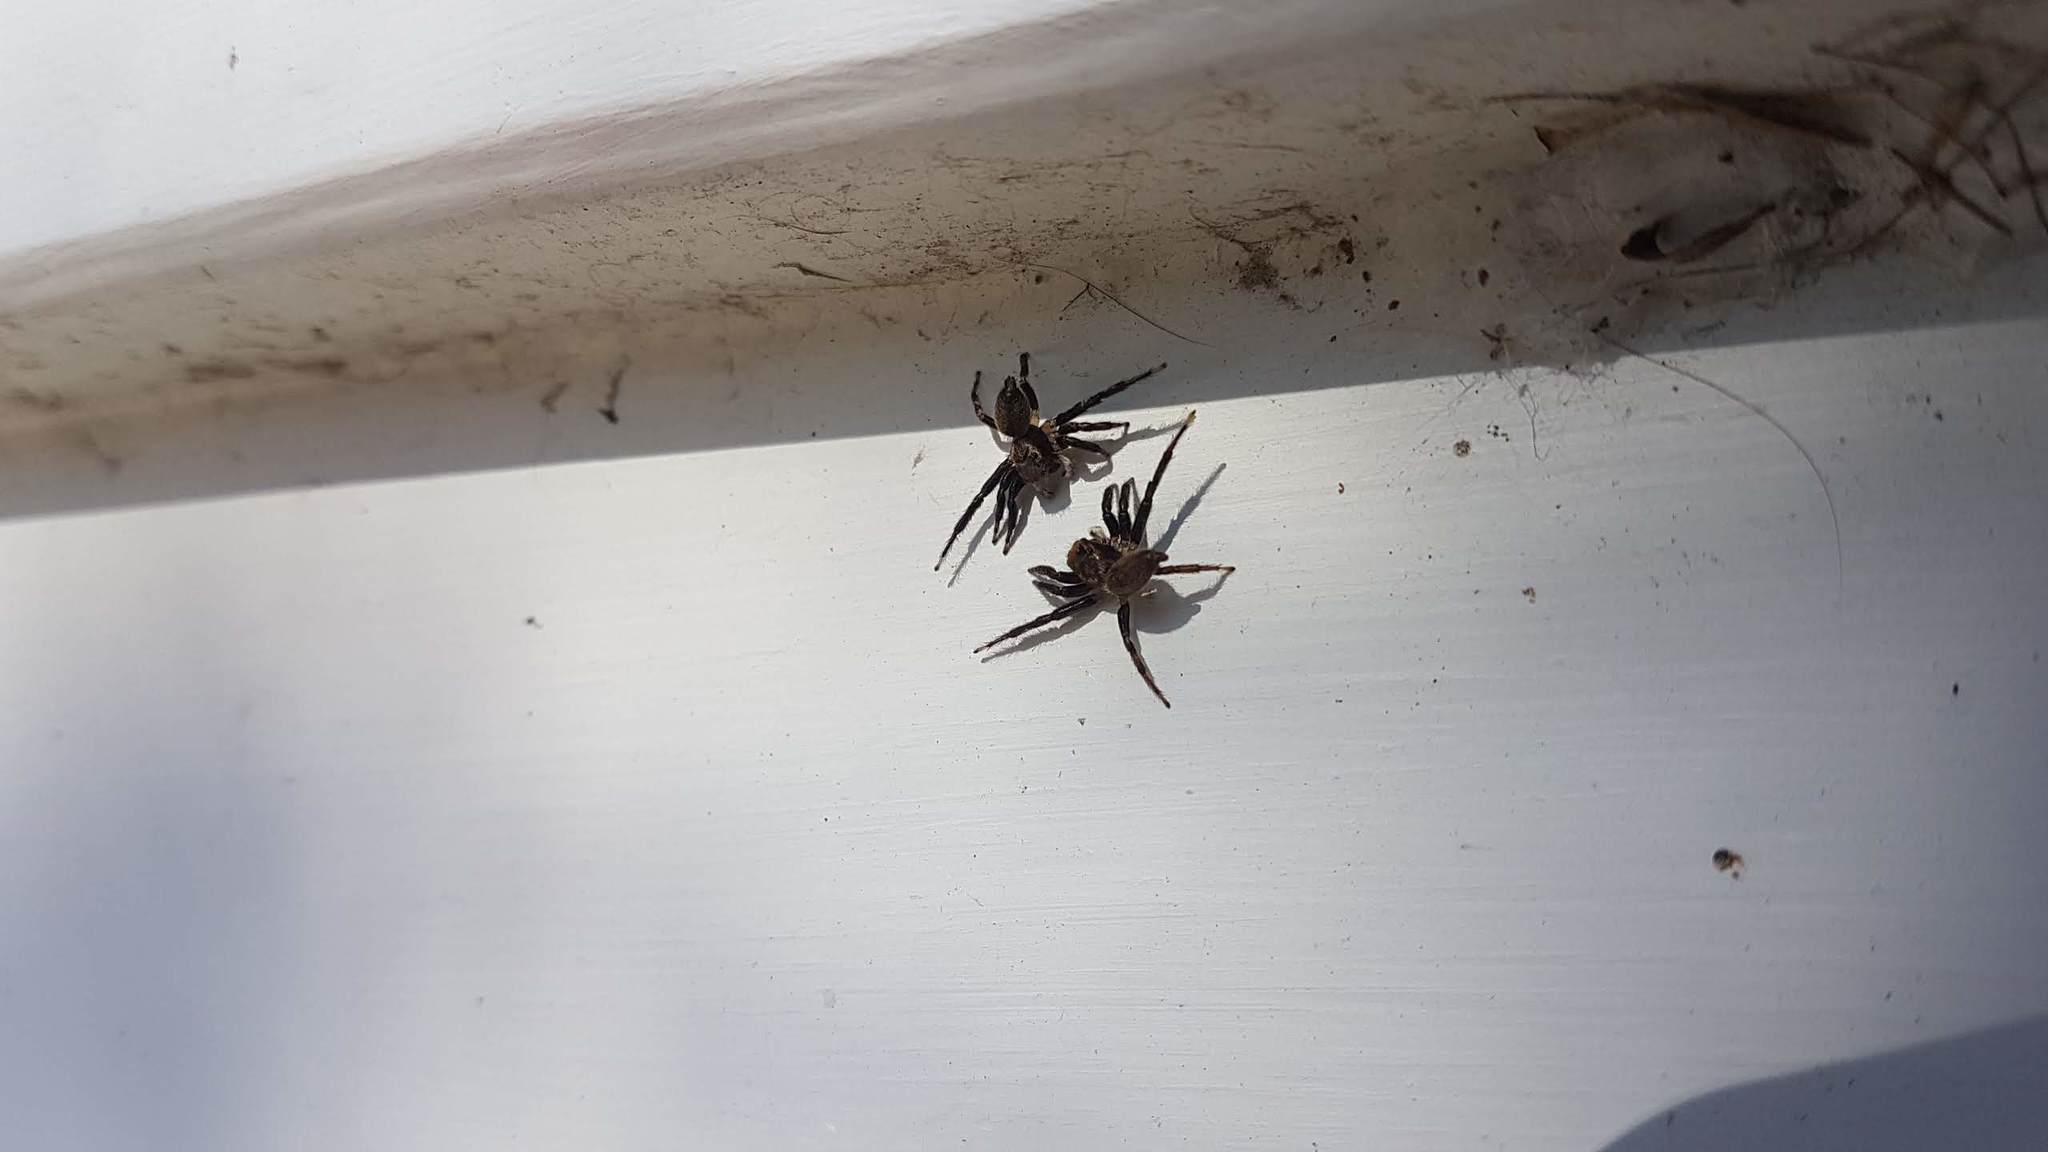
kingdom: Animalia
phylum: Arthropoda
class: Arachnida
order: Araneae
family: Salticidae
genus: Maratus
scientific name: Maratus griseus
